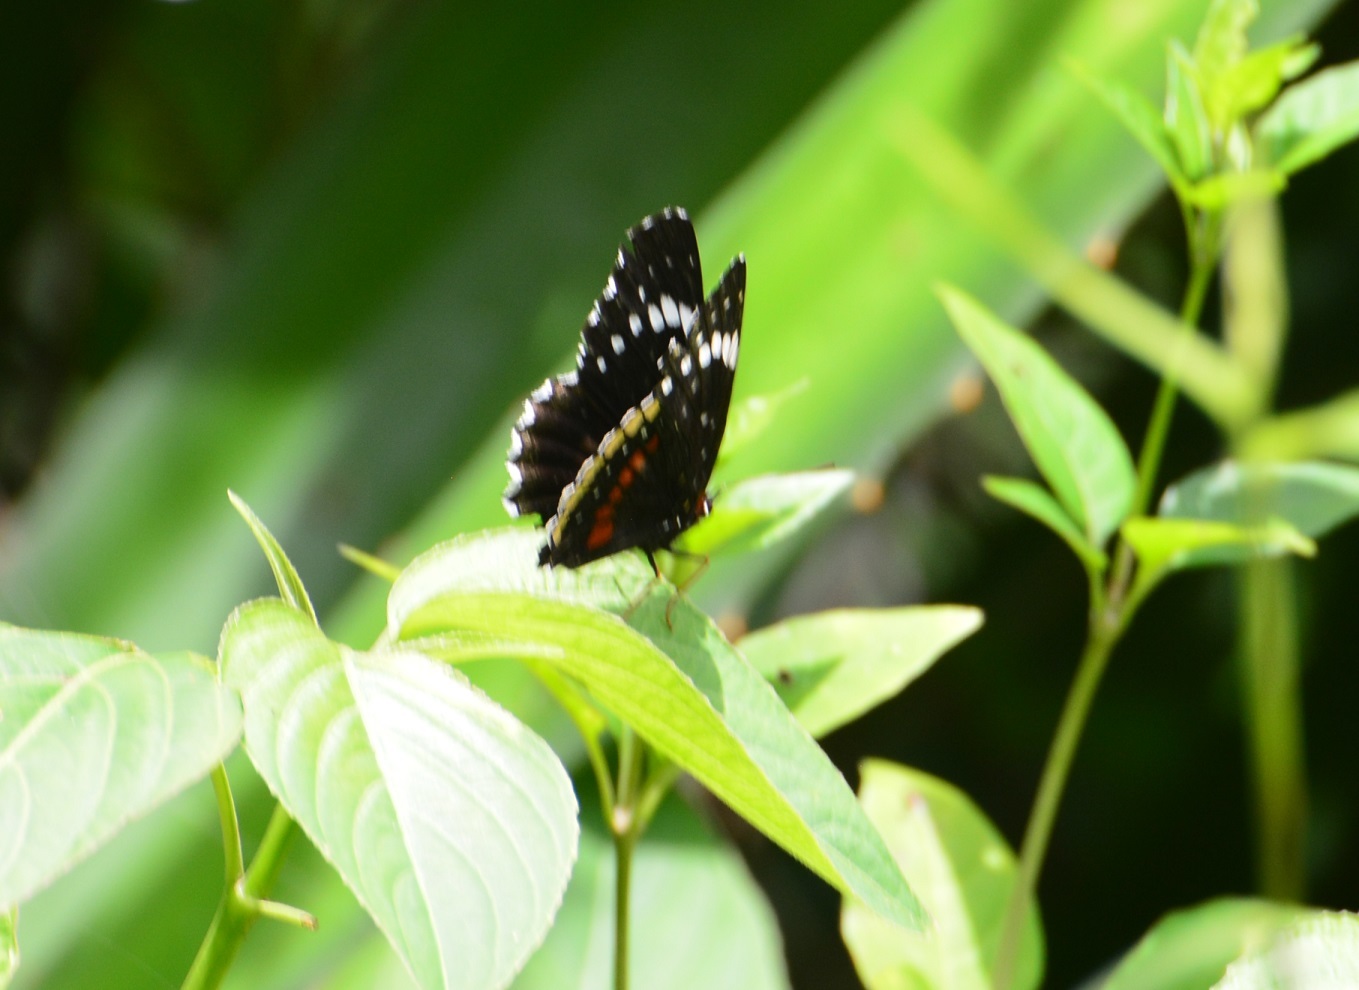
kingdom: Animalia
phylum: Arthropoda
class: Insecta
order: Lepidoptera
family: Nymphalidae
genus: Chlosyne
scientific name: Chlosyne hippodrome
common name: Simple patch
